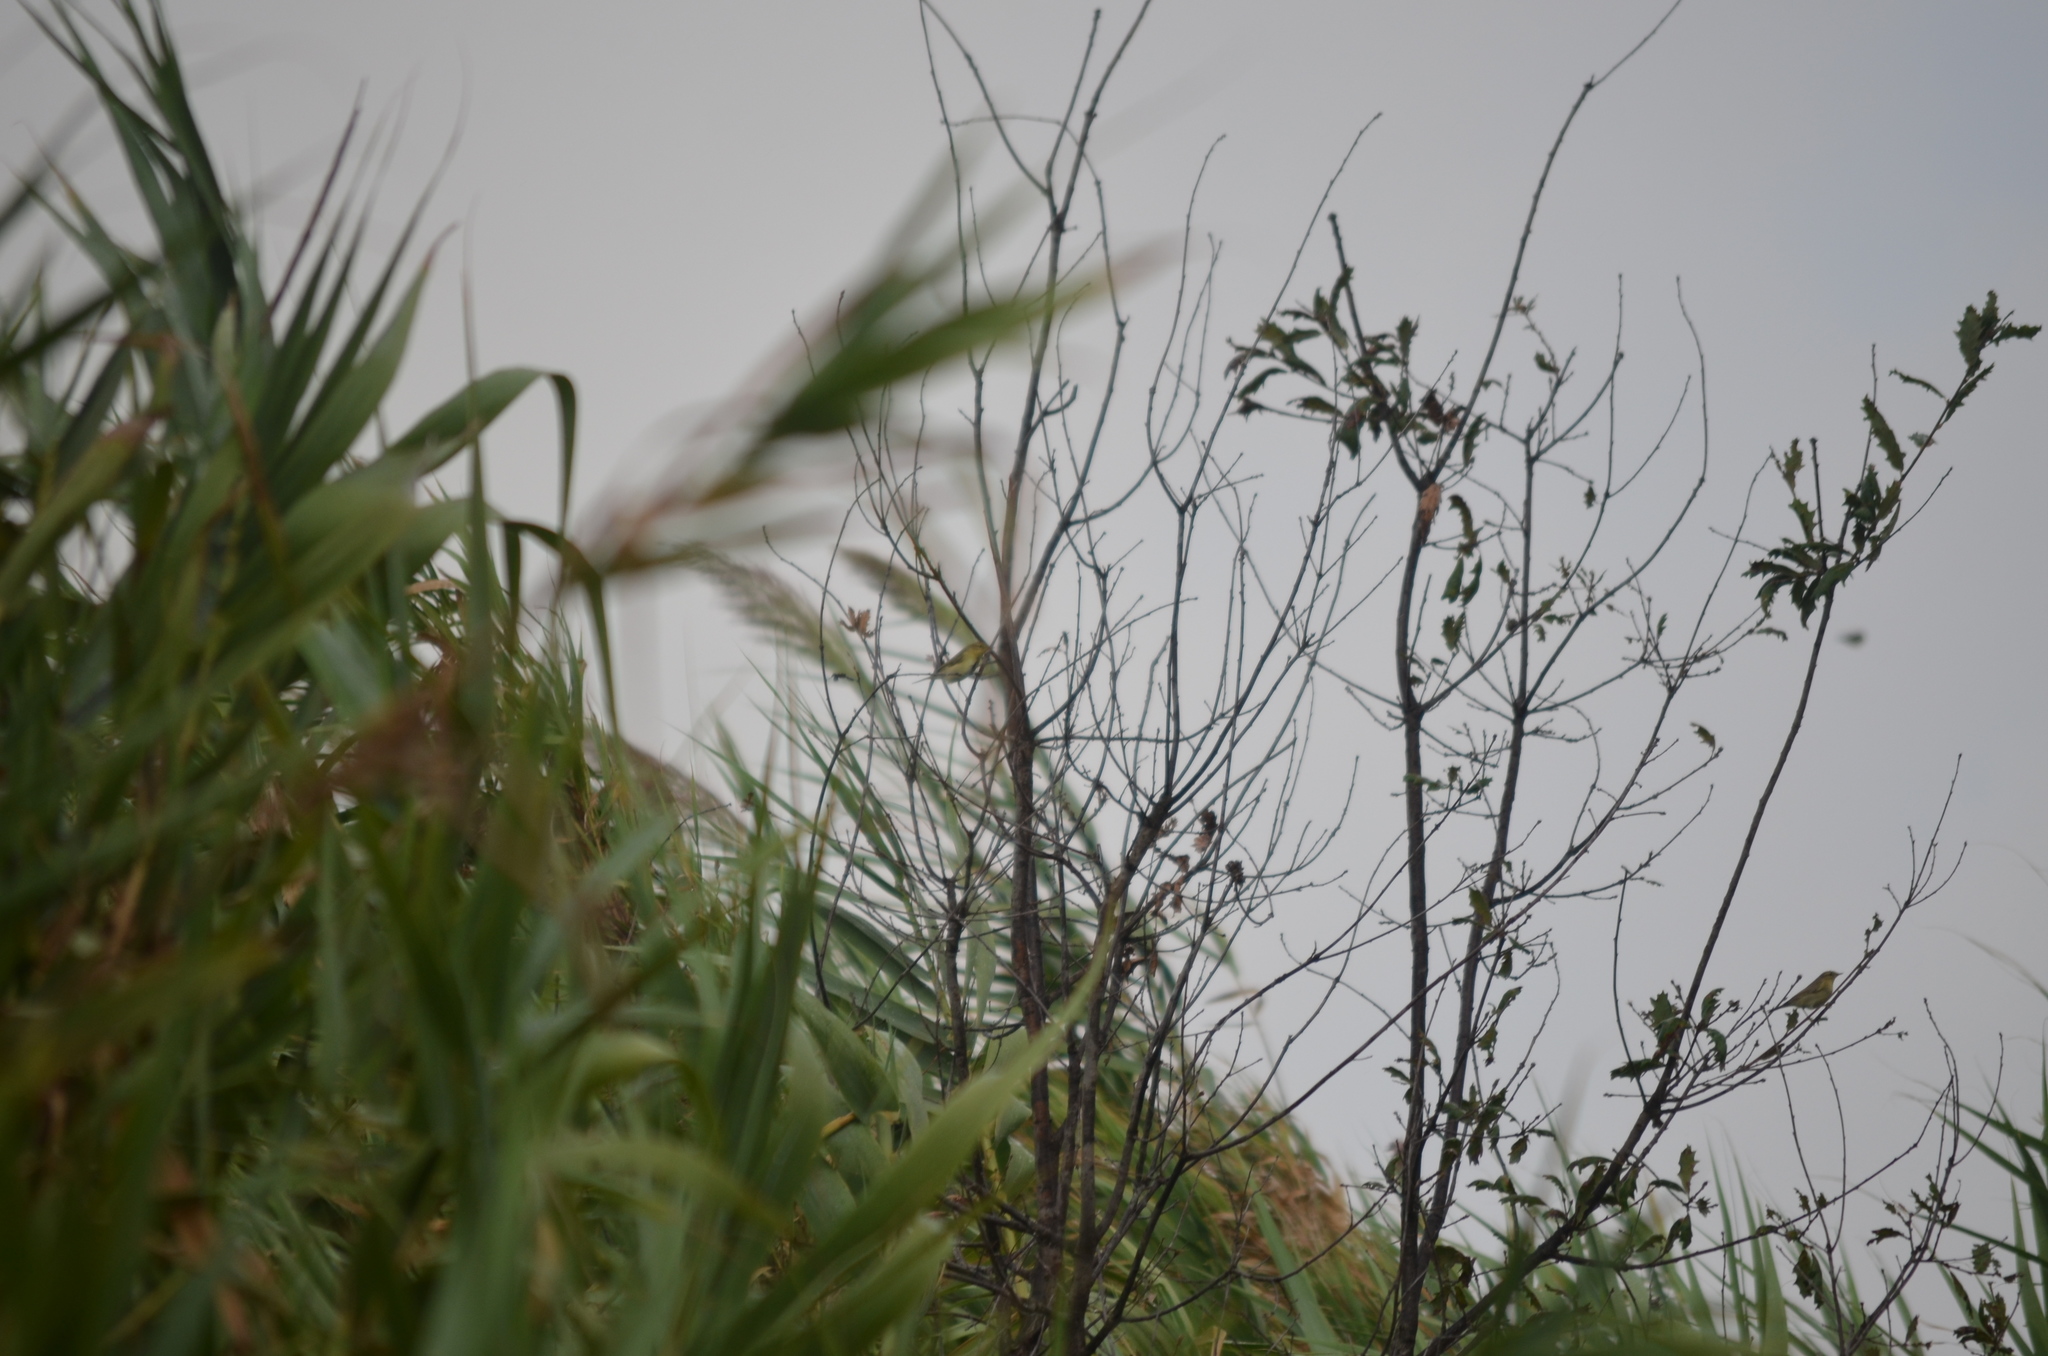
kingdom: Animalia
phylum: Chordata
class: Aves
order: Passeriformes
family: Phylloscopidae
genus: Phylloscopus
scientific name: Phylloscopus trochilus
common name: Willow warbler
